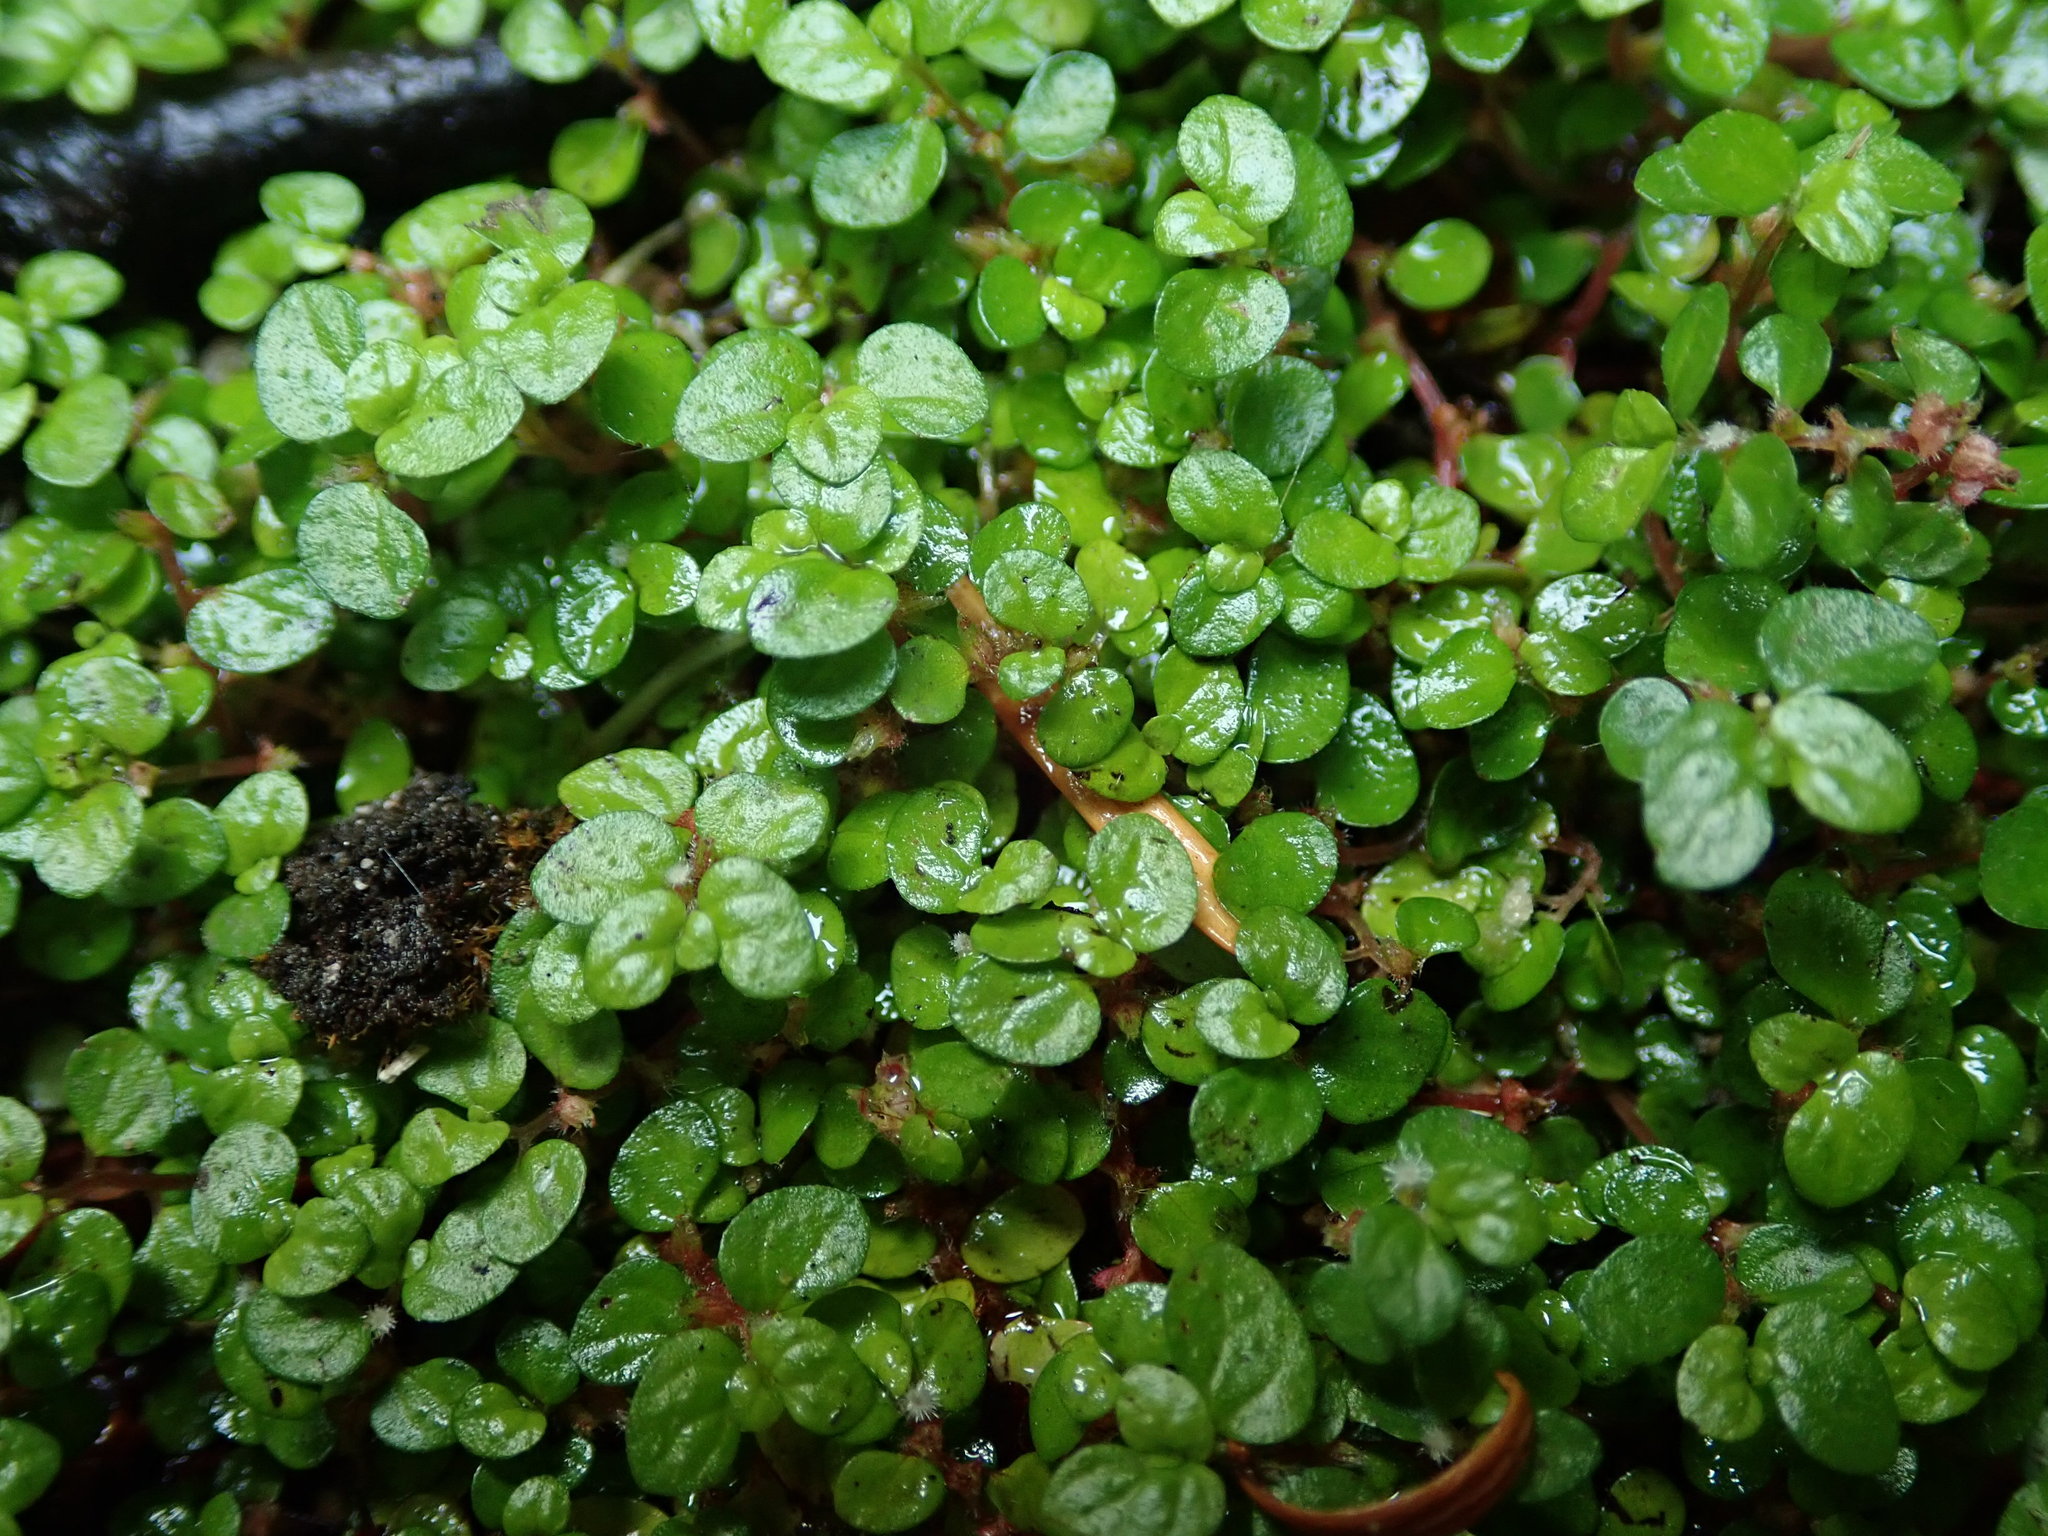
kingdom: Plantae
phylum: Tracheophyta
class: Magnoliopsida
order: Rosales
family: Urticaceae
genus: Soleirolia
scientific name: Soleirolia soleirolii
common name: Mind-your-own-business
